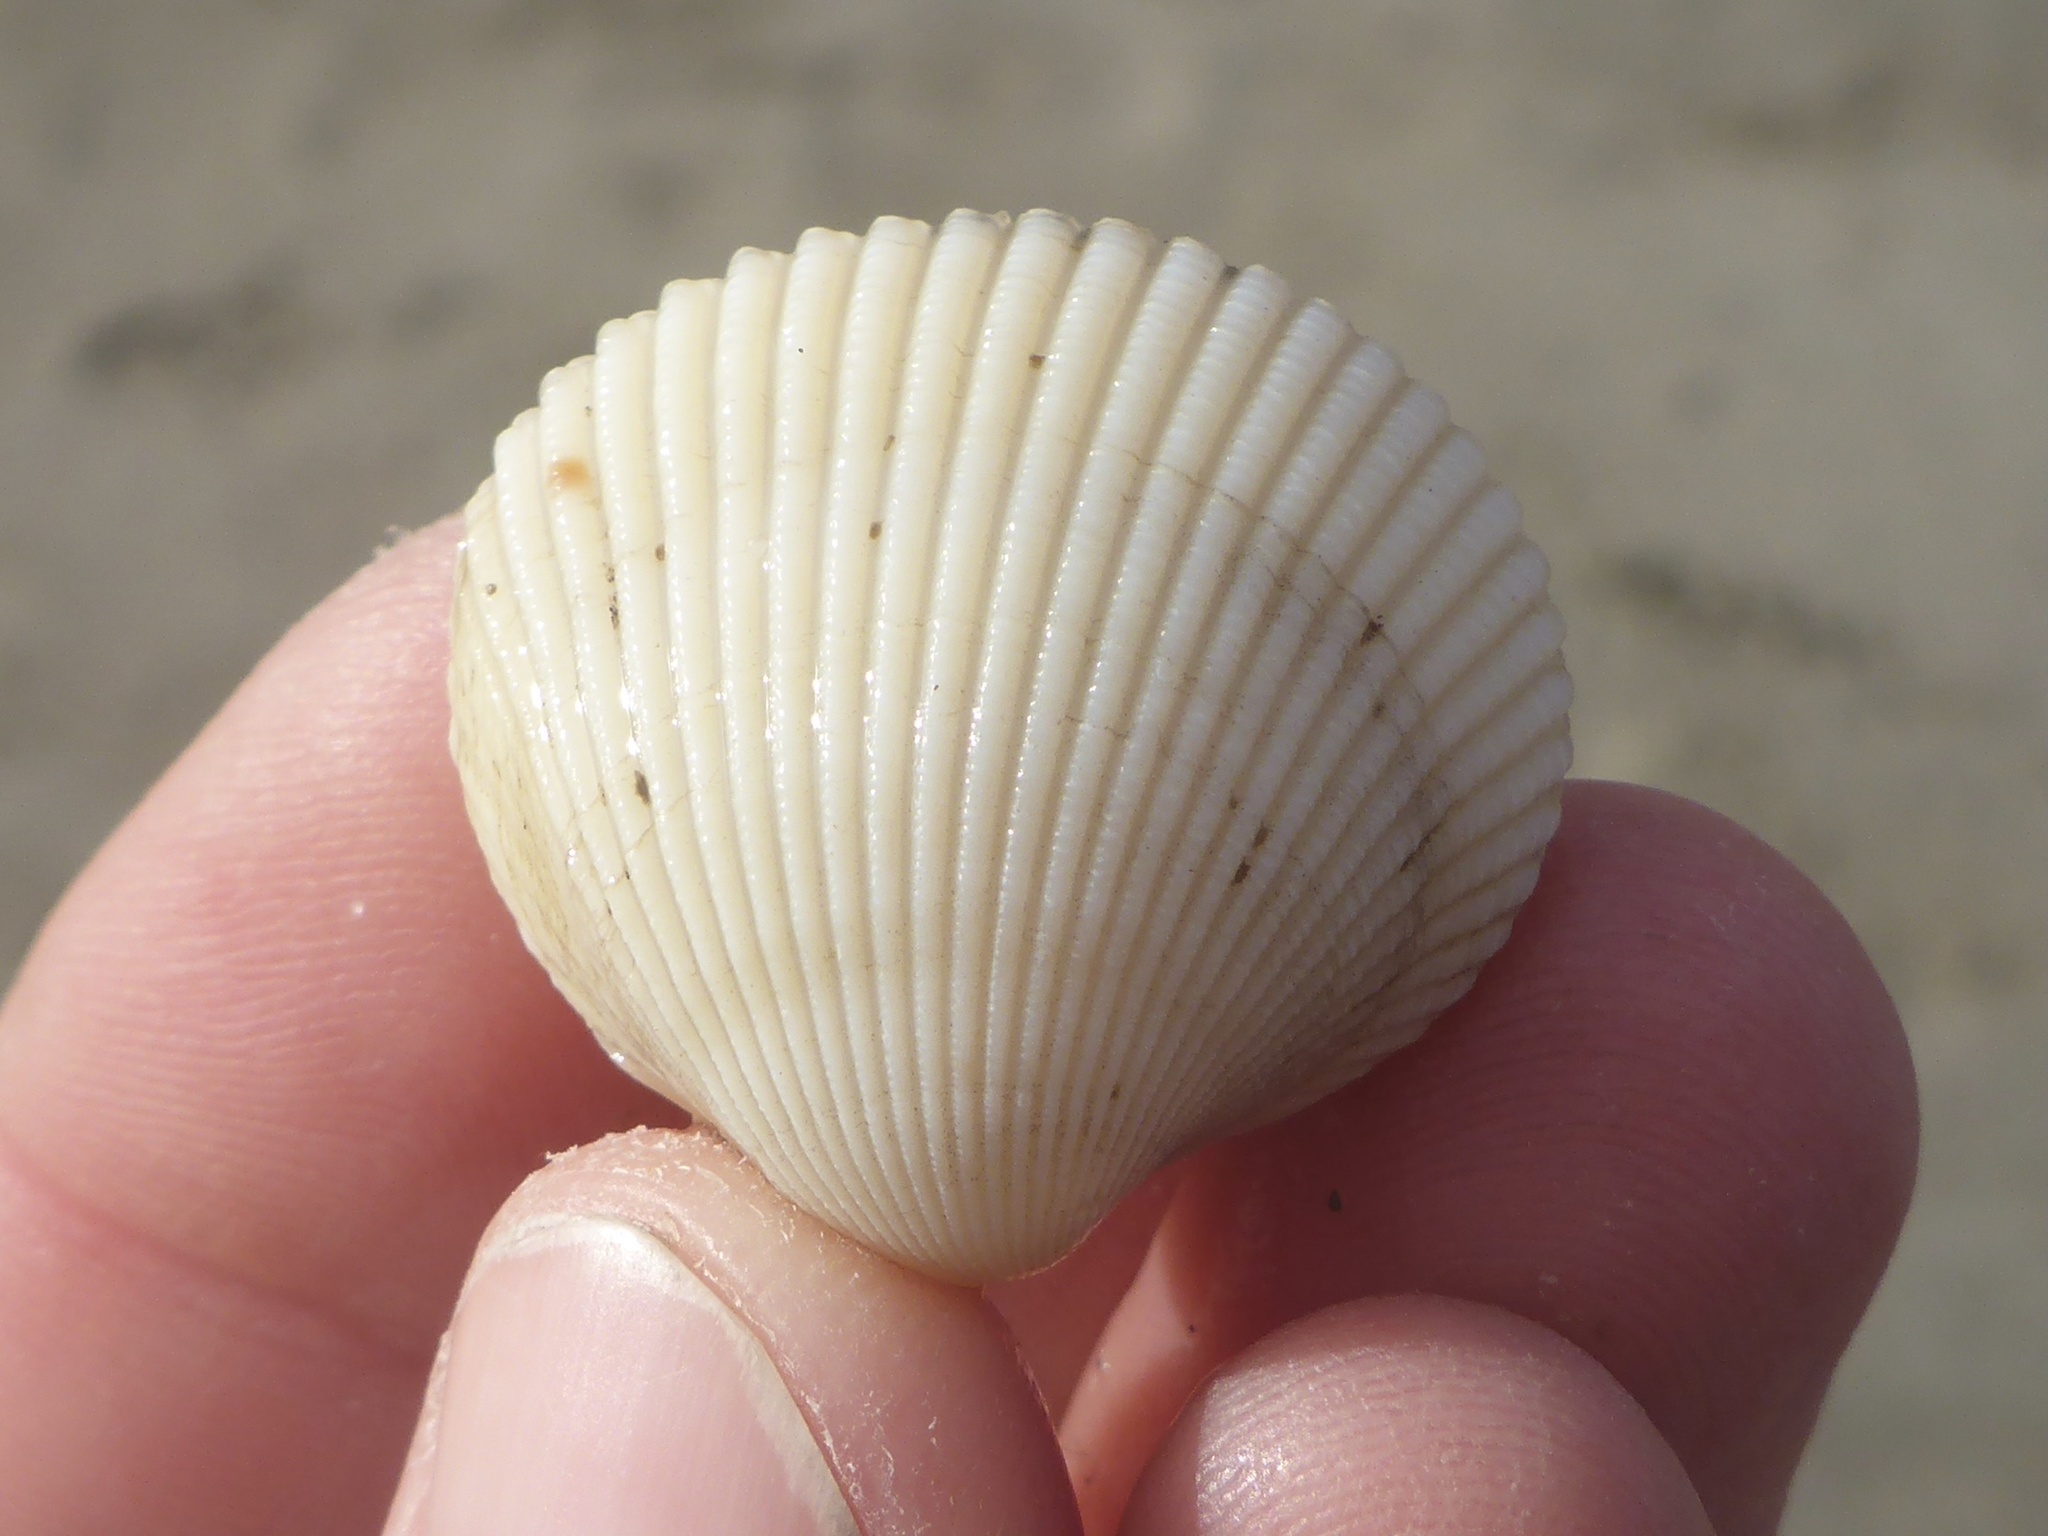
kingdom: Animalia
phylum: Mollusca
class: Bivalvia
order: Cardiida
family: Cardiidae
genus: Clinocardium
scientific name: Clinocardium nuttallii
